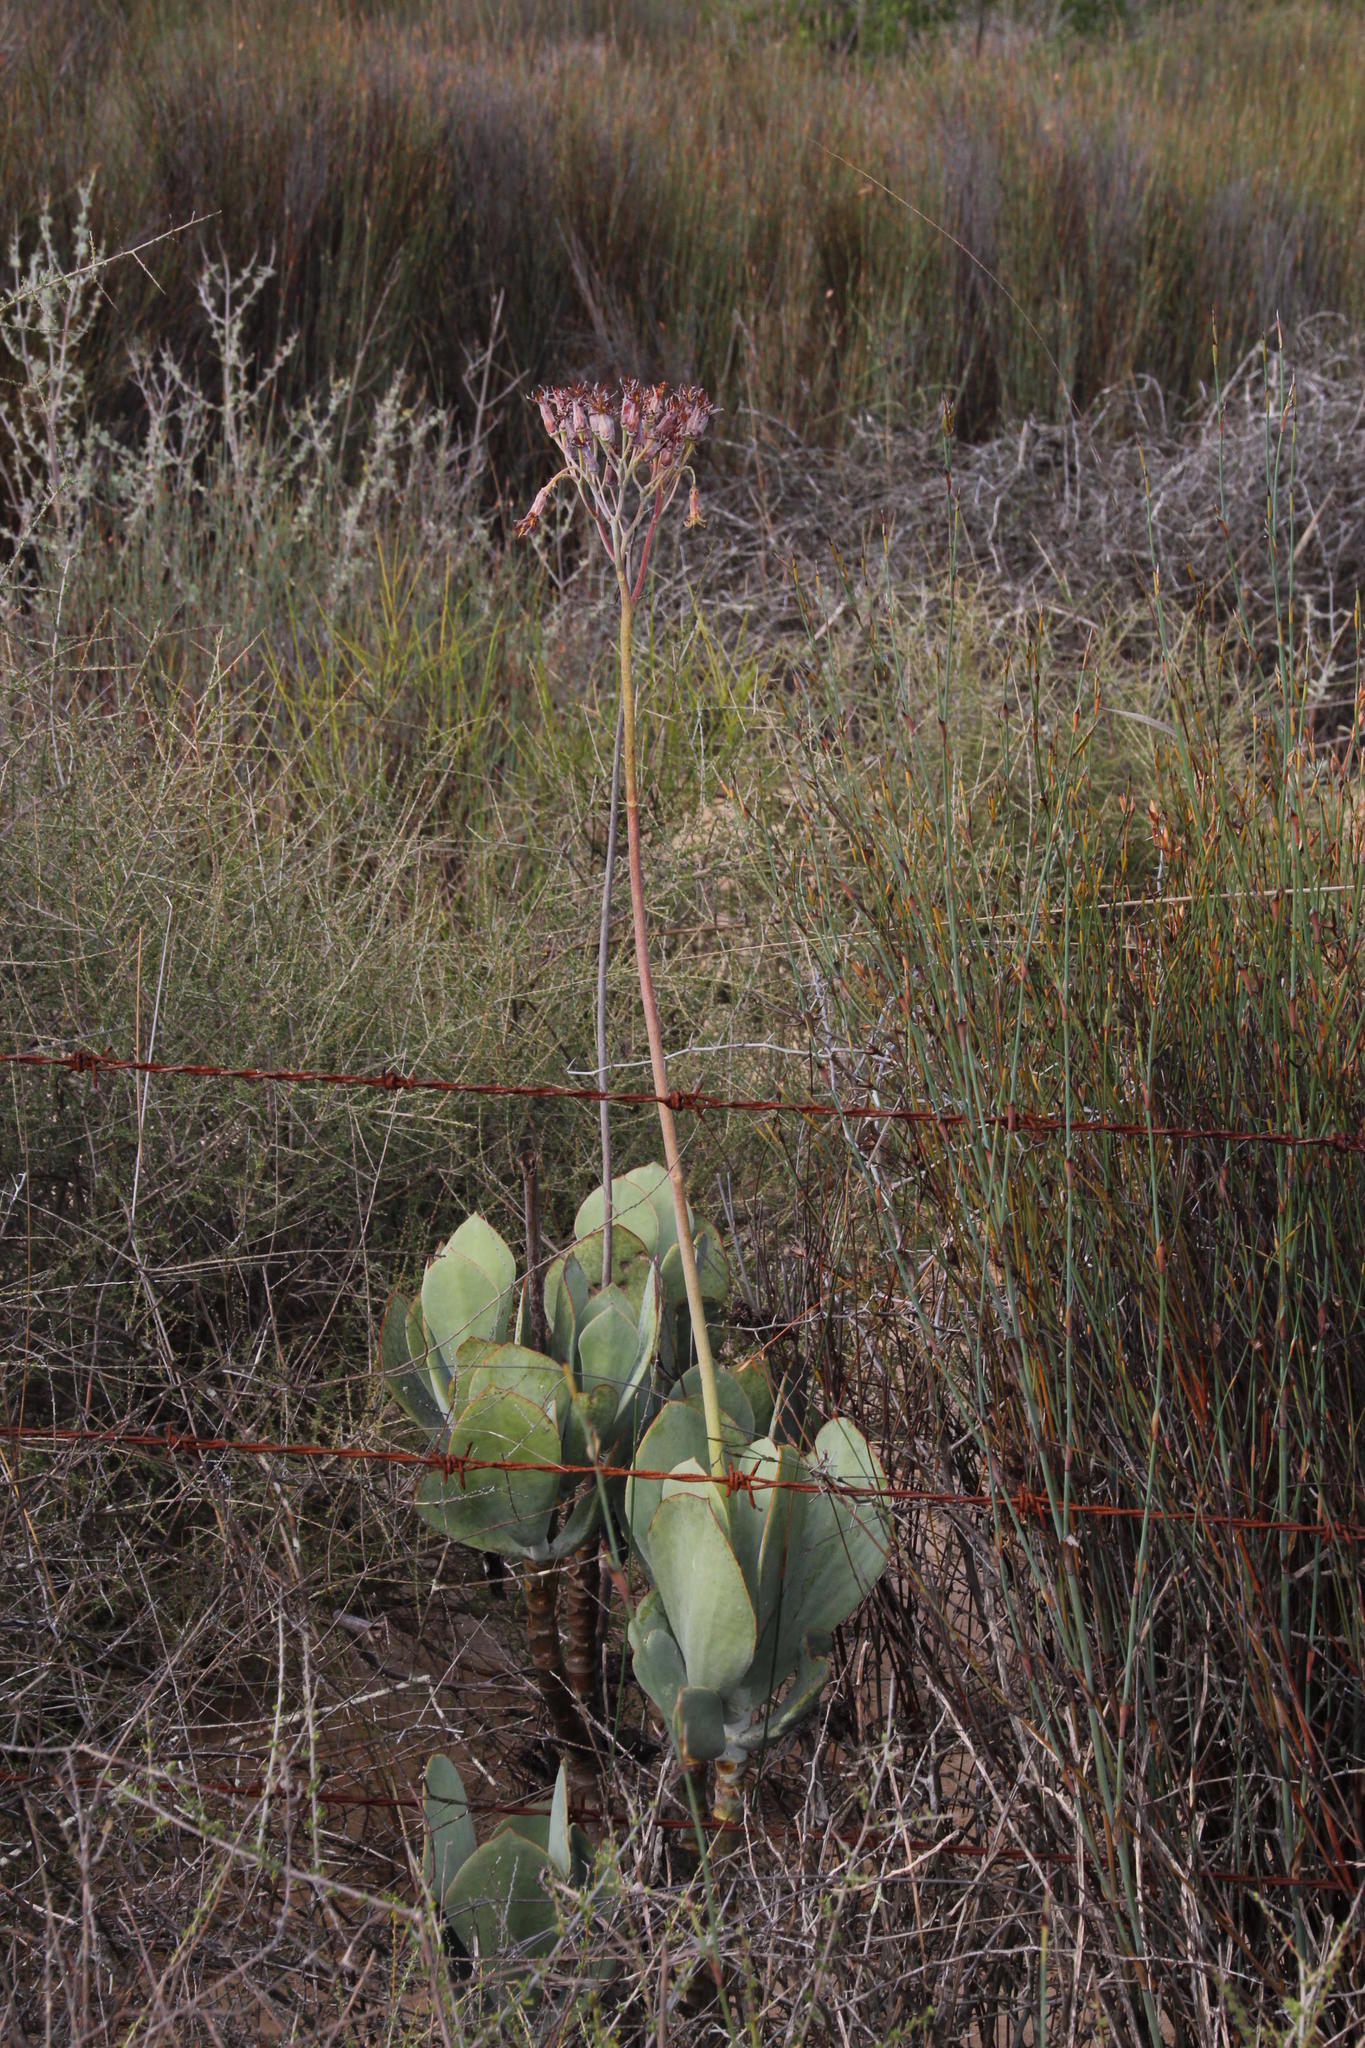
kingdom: Plantae
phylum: Tracheophyta
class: Magnoliopsida
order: Saxifragales
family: Crassulaceae
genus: Cotyledon
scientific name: Cotyledon orbiculata
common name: Pig's ear
